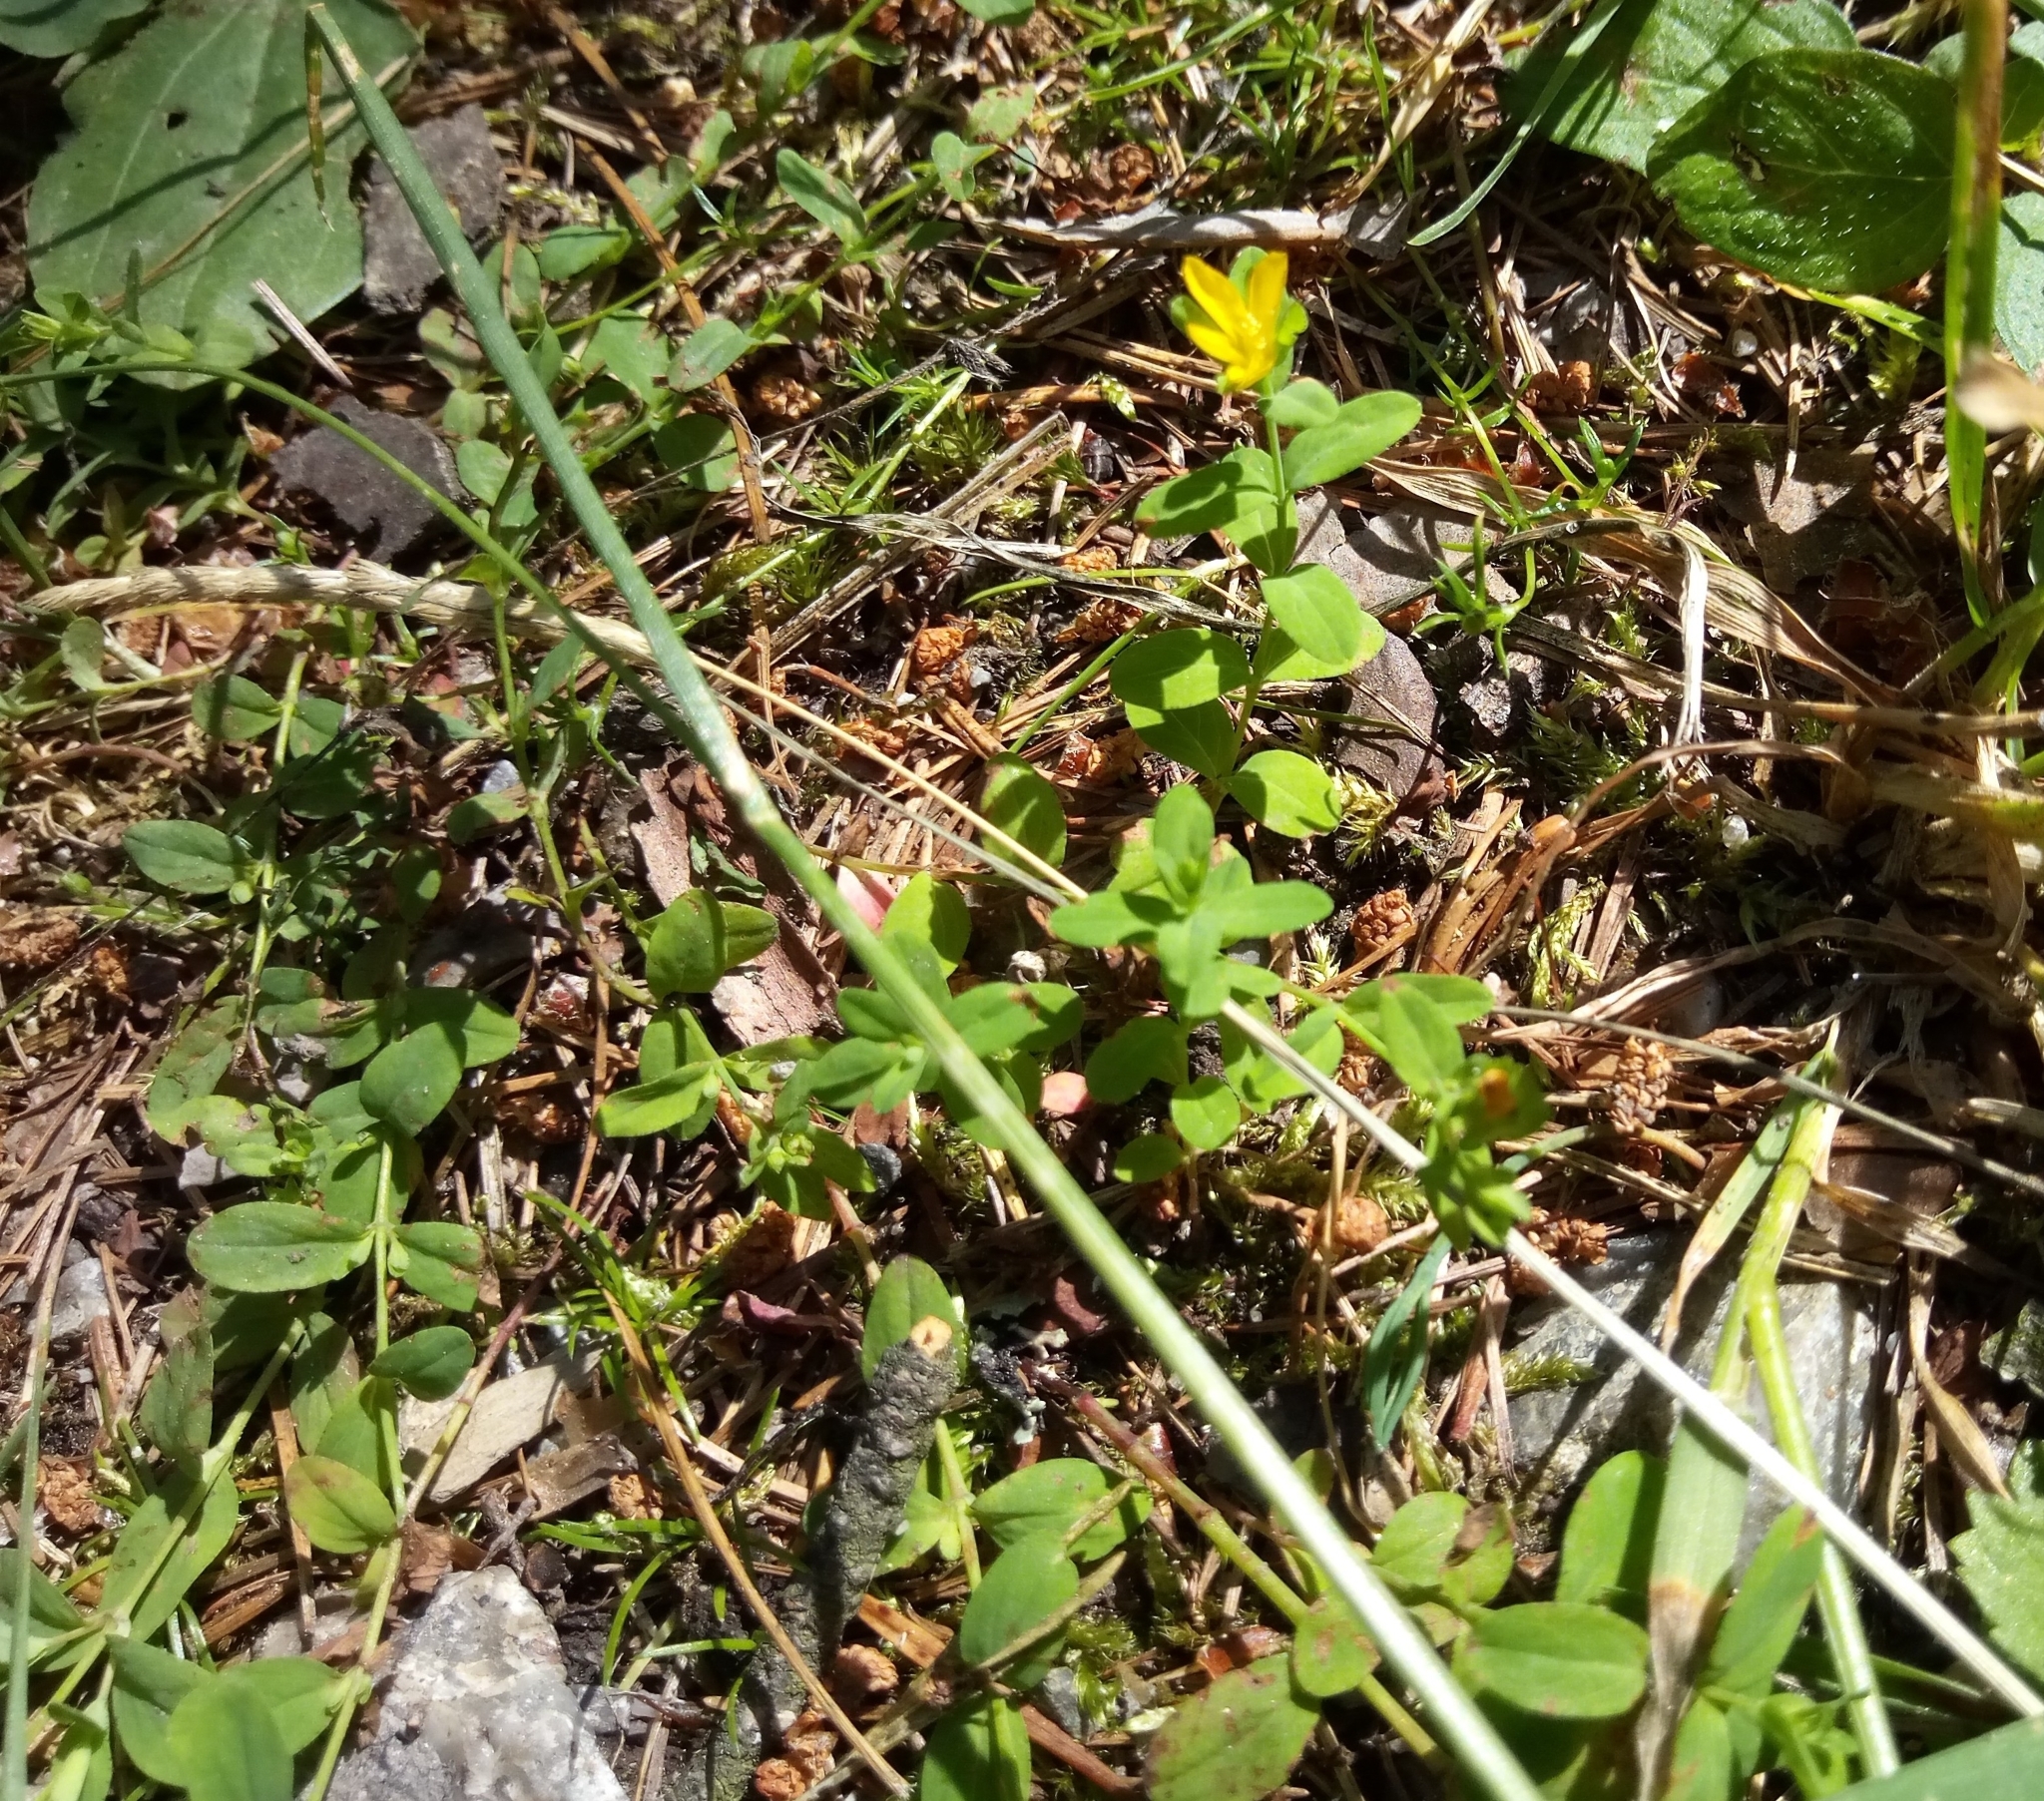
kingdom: Plantae
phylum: Tracheophyta
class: Magnoliopsida
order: Malpighiales
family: Hypericaceae
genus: Hypericum
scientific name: Hypericum humifusum
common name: Trailing st. john's-wort
